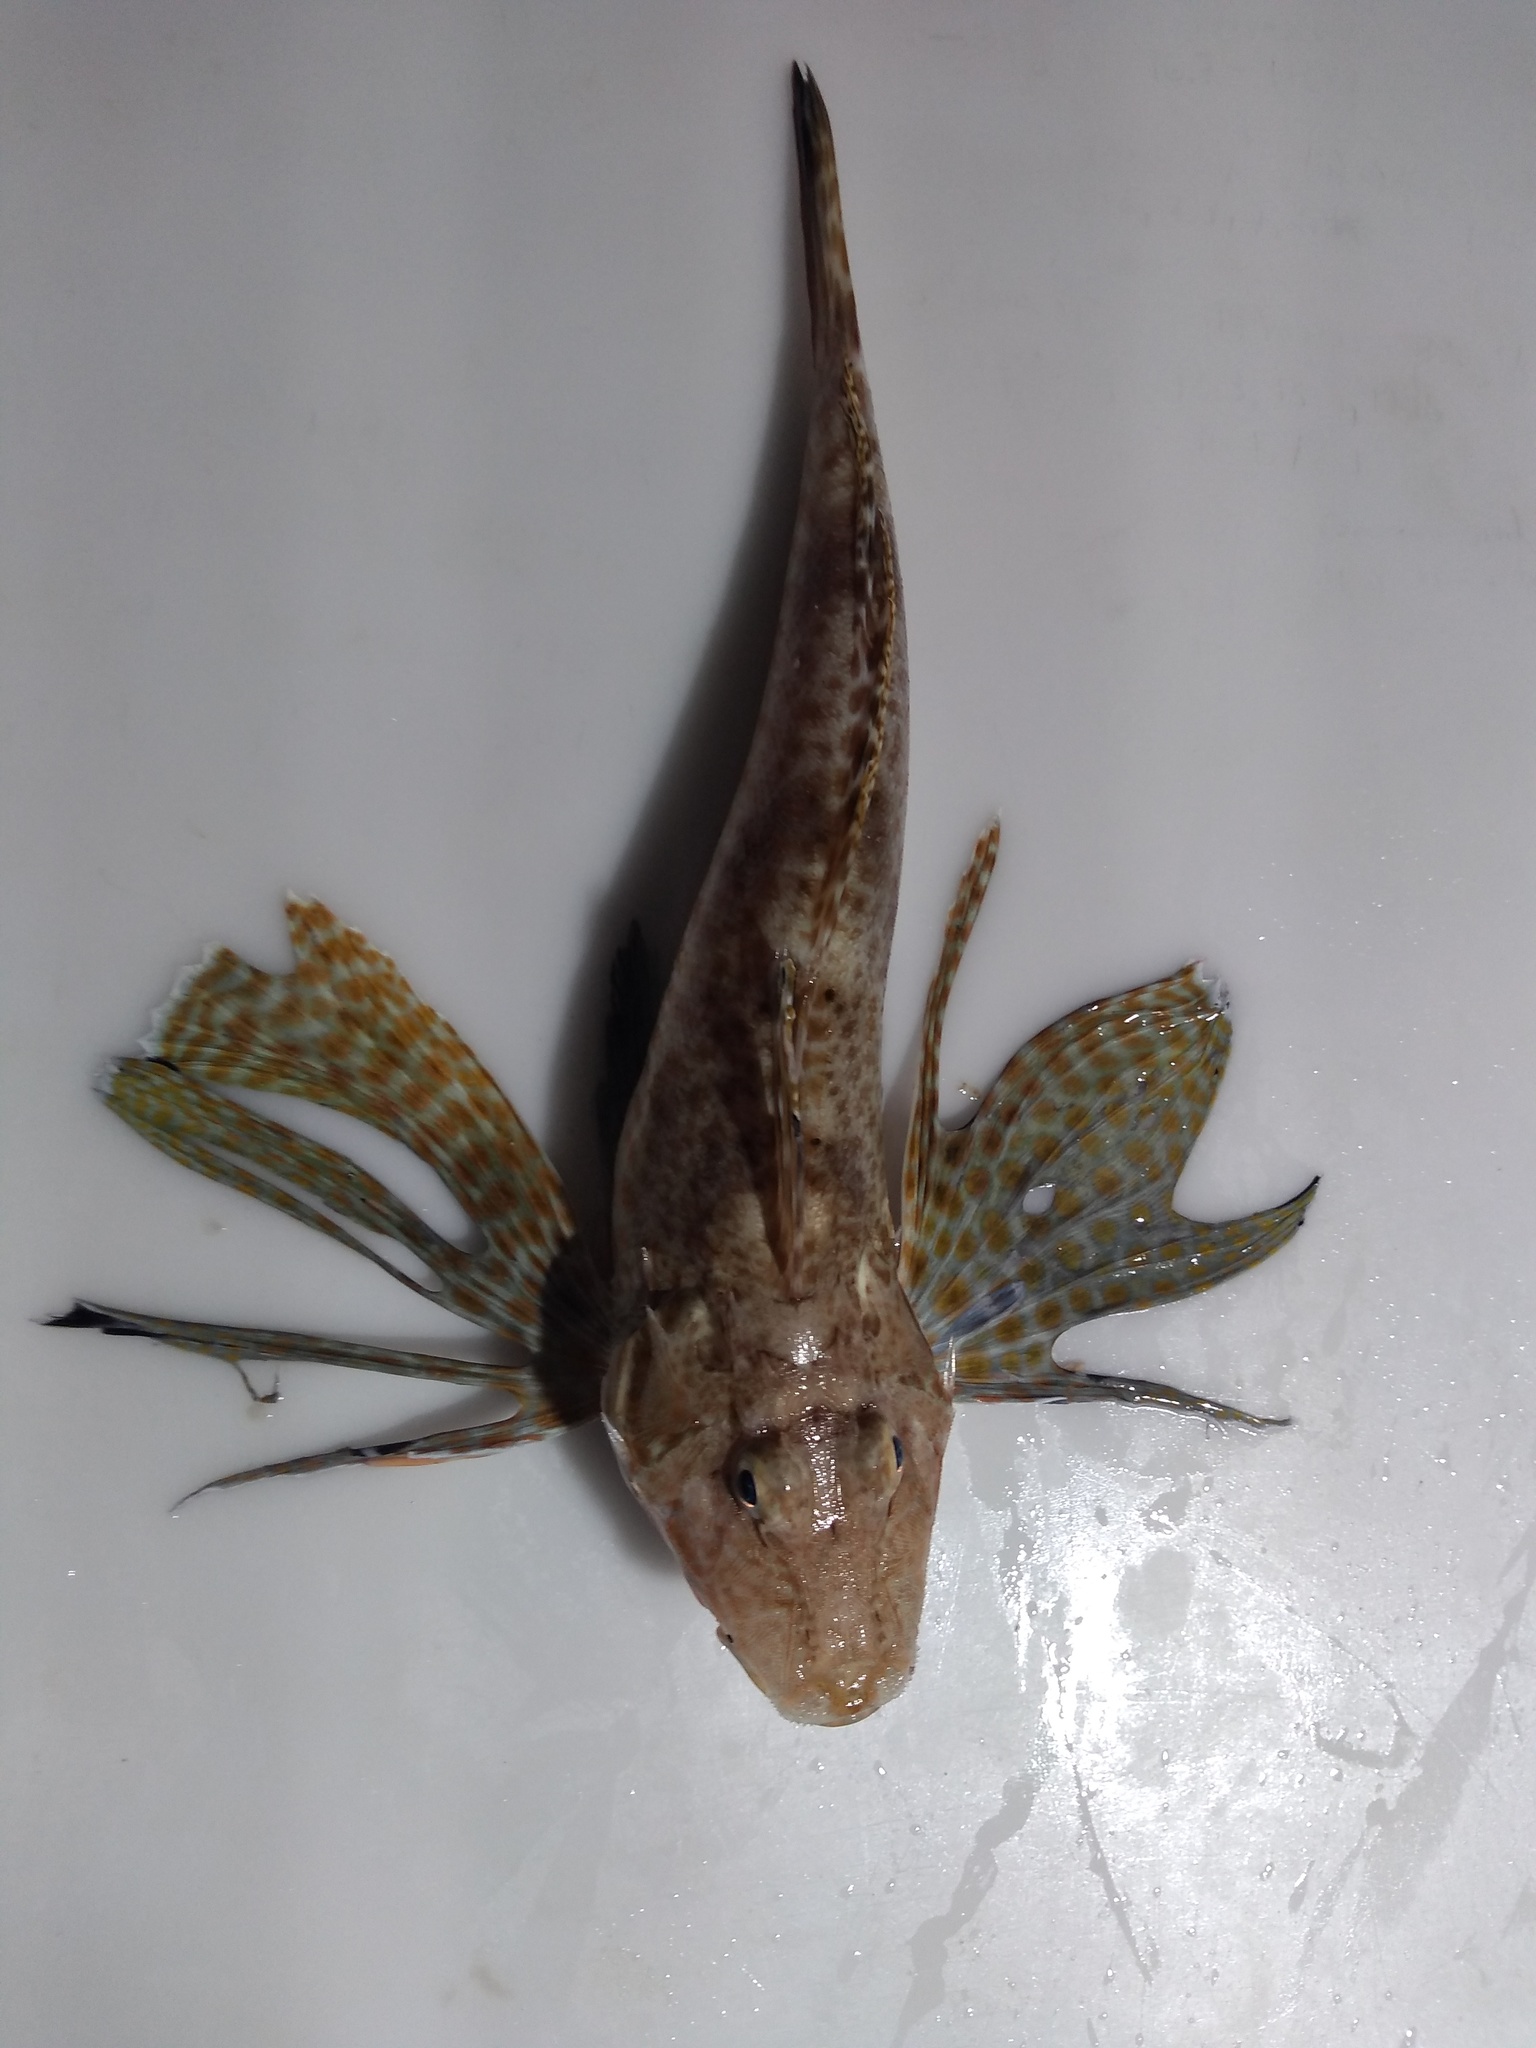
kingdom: Animalia
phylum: Chordata
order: Scorpaeniformes
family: Triglidae
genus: Prionotus
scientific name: Prionotus scitulus
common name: Leopard searobin
